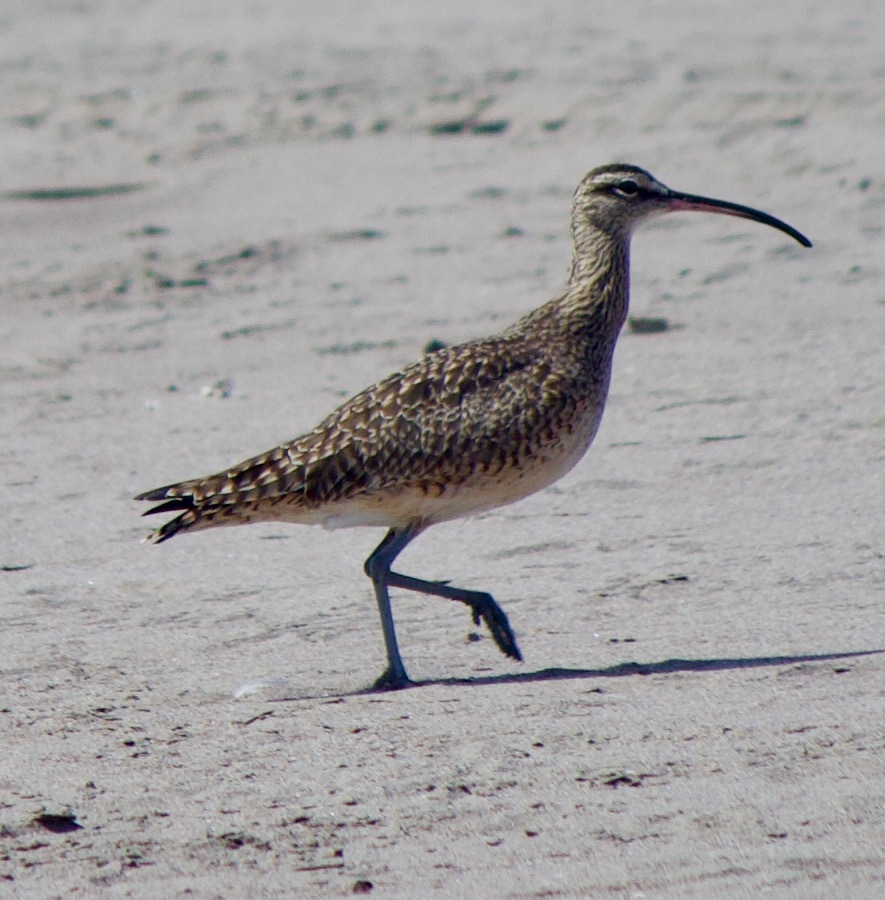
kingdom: Animalia
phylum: Chordata
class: Aves
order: Charadriiformes
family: Scolopacidae
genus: Numenius
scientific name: Numenius hudsonicus
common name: Hudsonian whimbrel
